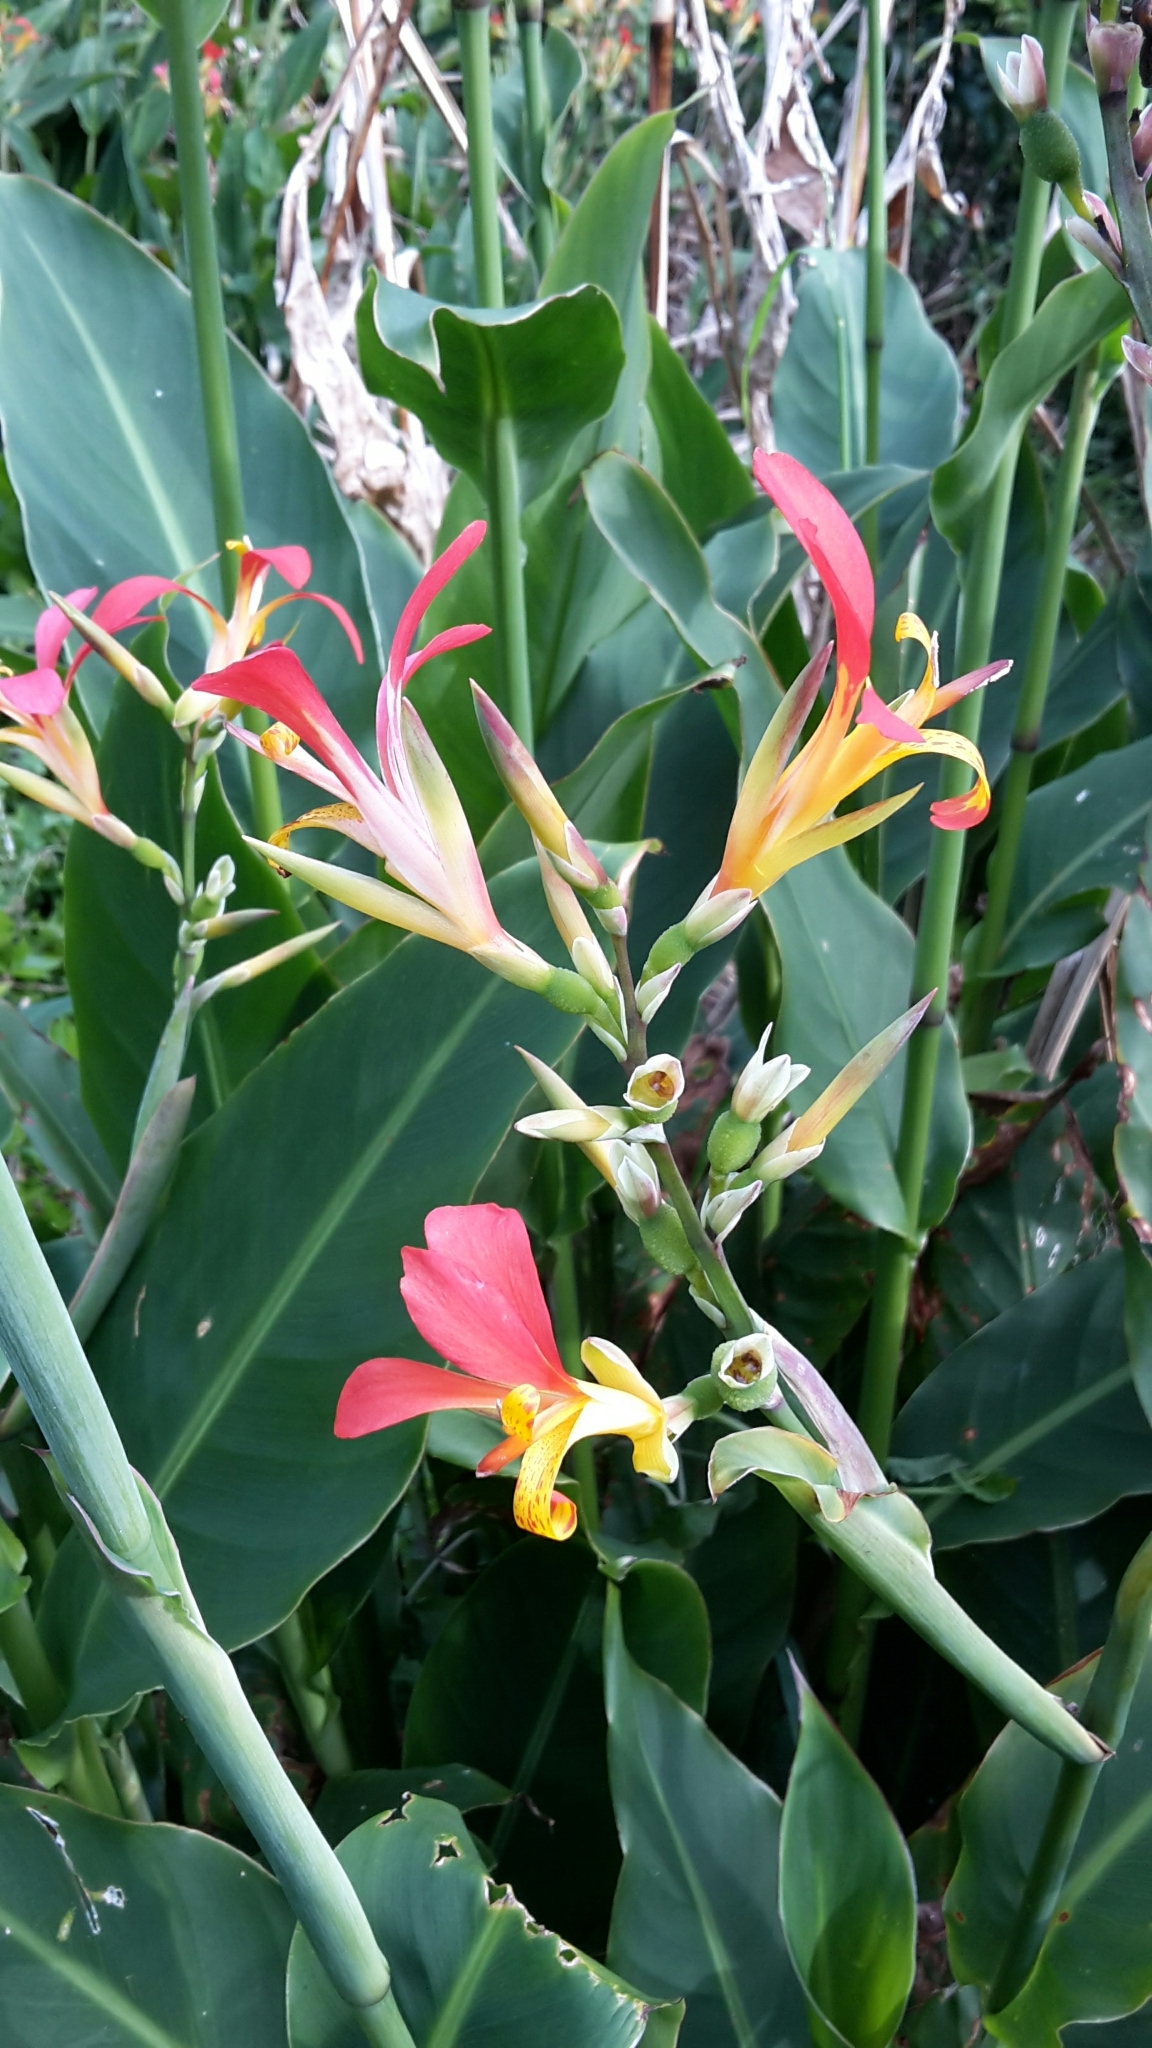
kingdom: Plantae
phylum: Tracheophyta
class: Liliopsida
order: Zingiberales
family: Cannaceae
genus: Canna
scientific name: Canna indica
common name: Indian shot
